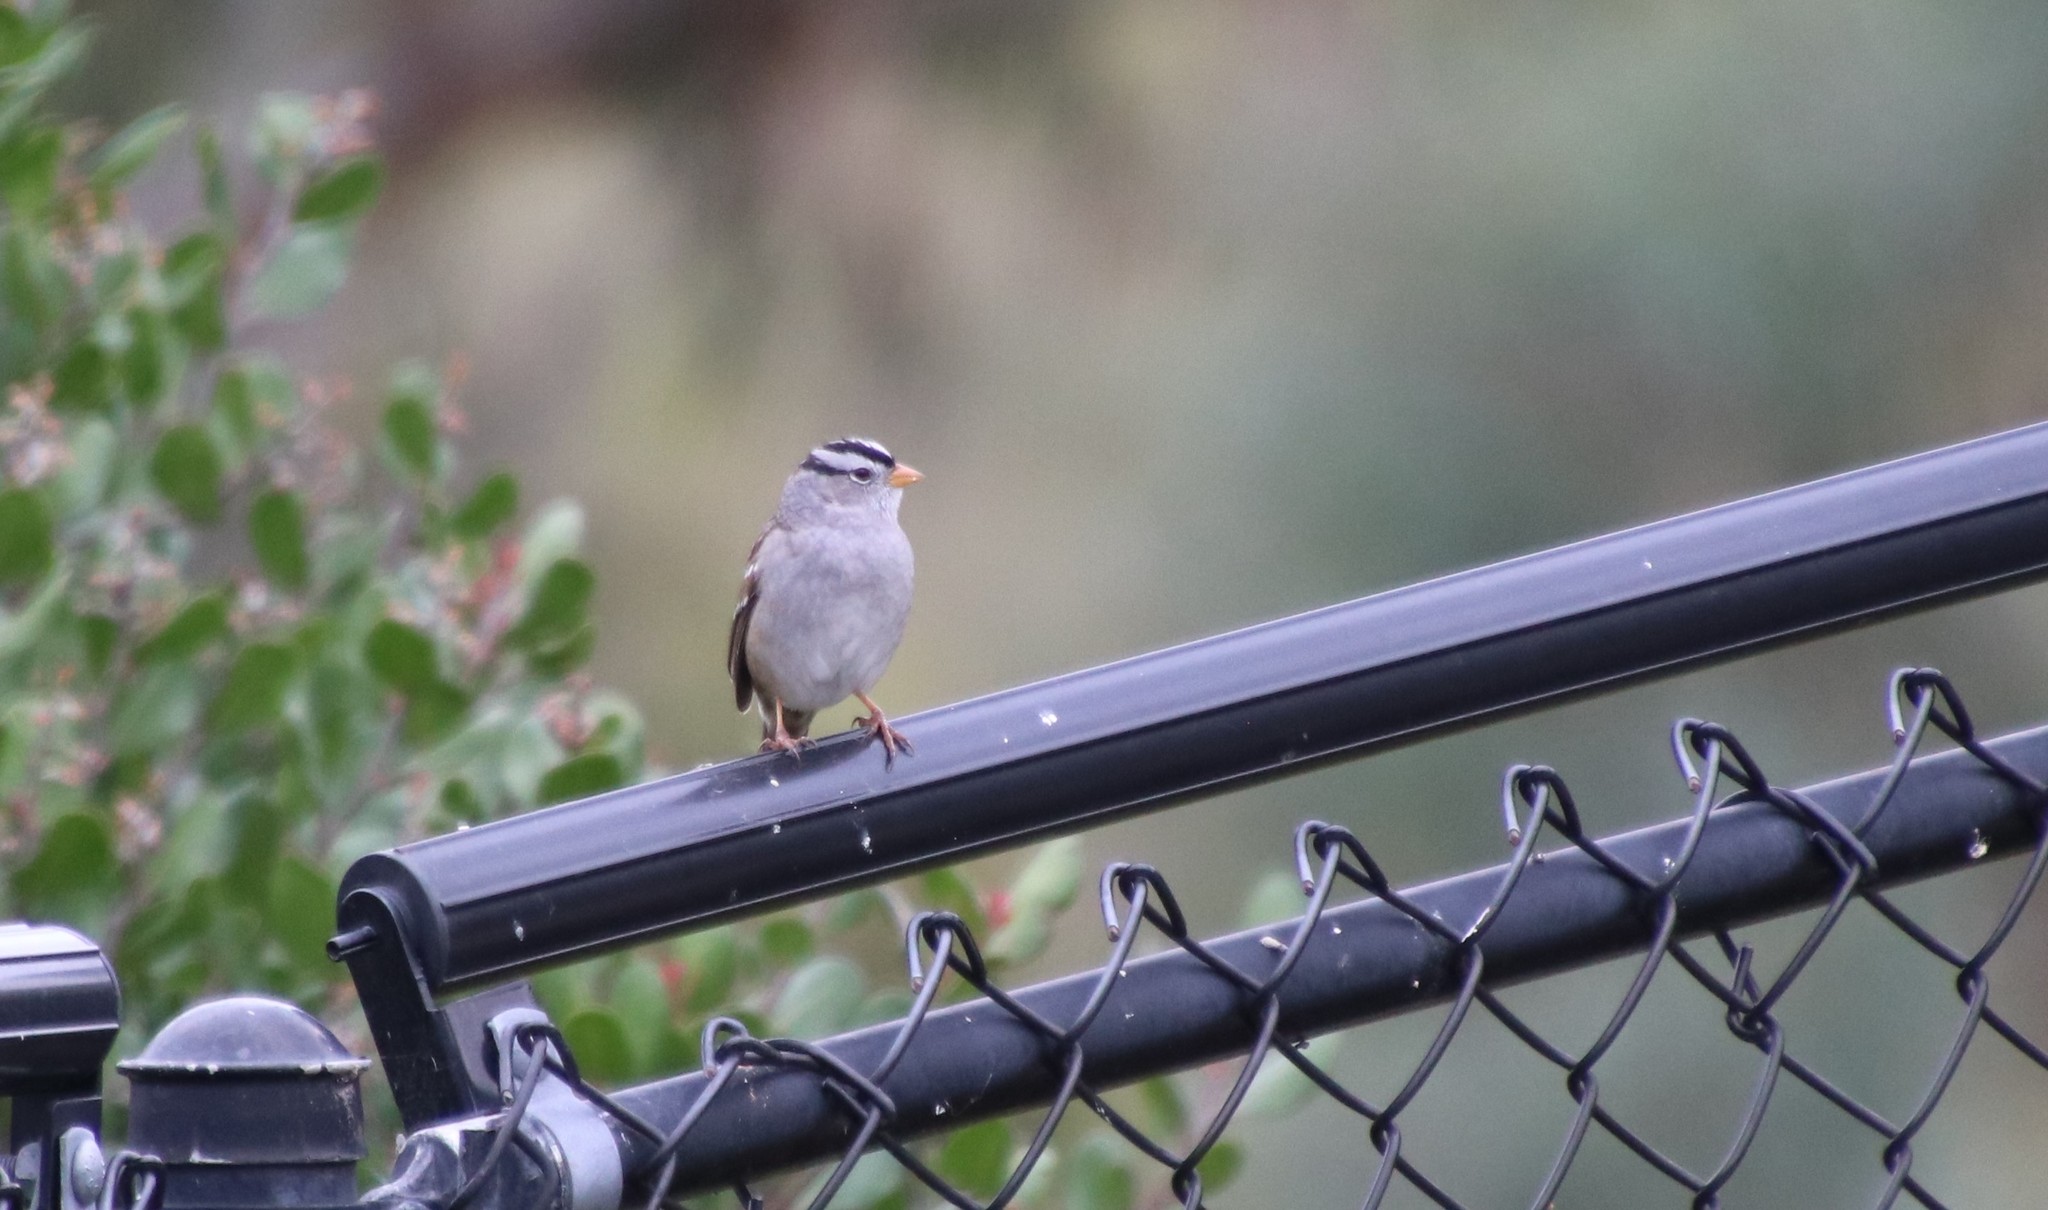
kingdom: Animalia
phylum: Chordata
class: Aves
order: Passeriformes
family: Passerellidae
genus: Zonotrichia
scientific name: Zonotrichia leucophrys
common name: White-crowned sparrow
